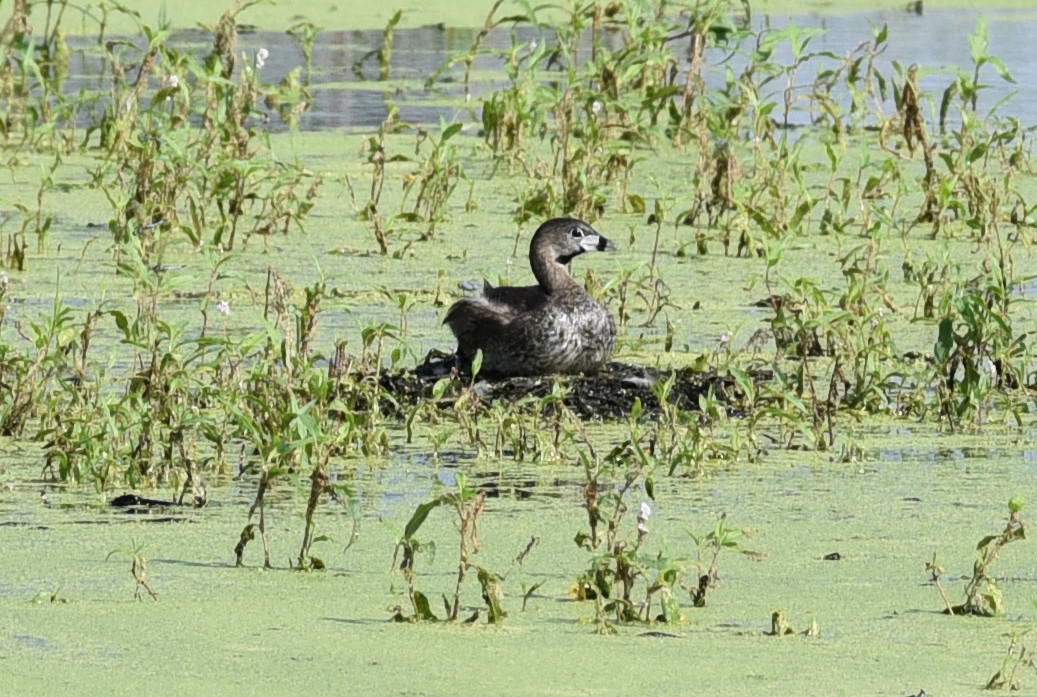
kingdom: Animalia
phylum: Chordata
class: Aves
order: Podicipediformes
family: Podicipedidae
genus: Podilymbus
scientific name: Podilymbus podiceps
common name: Pied-billed grebe
